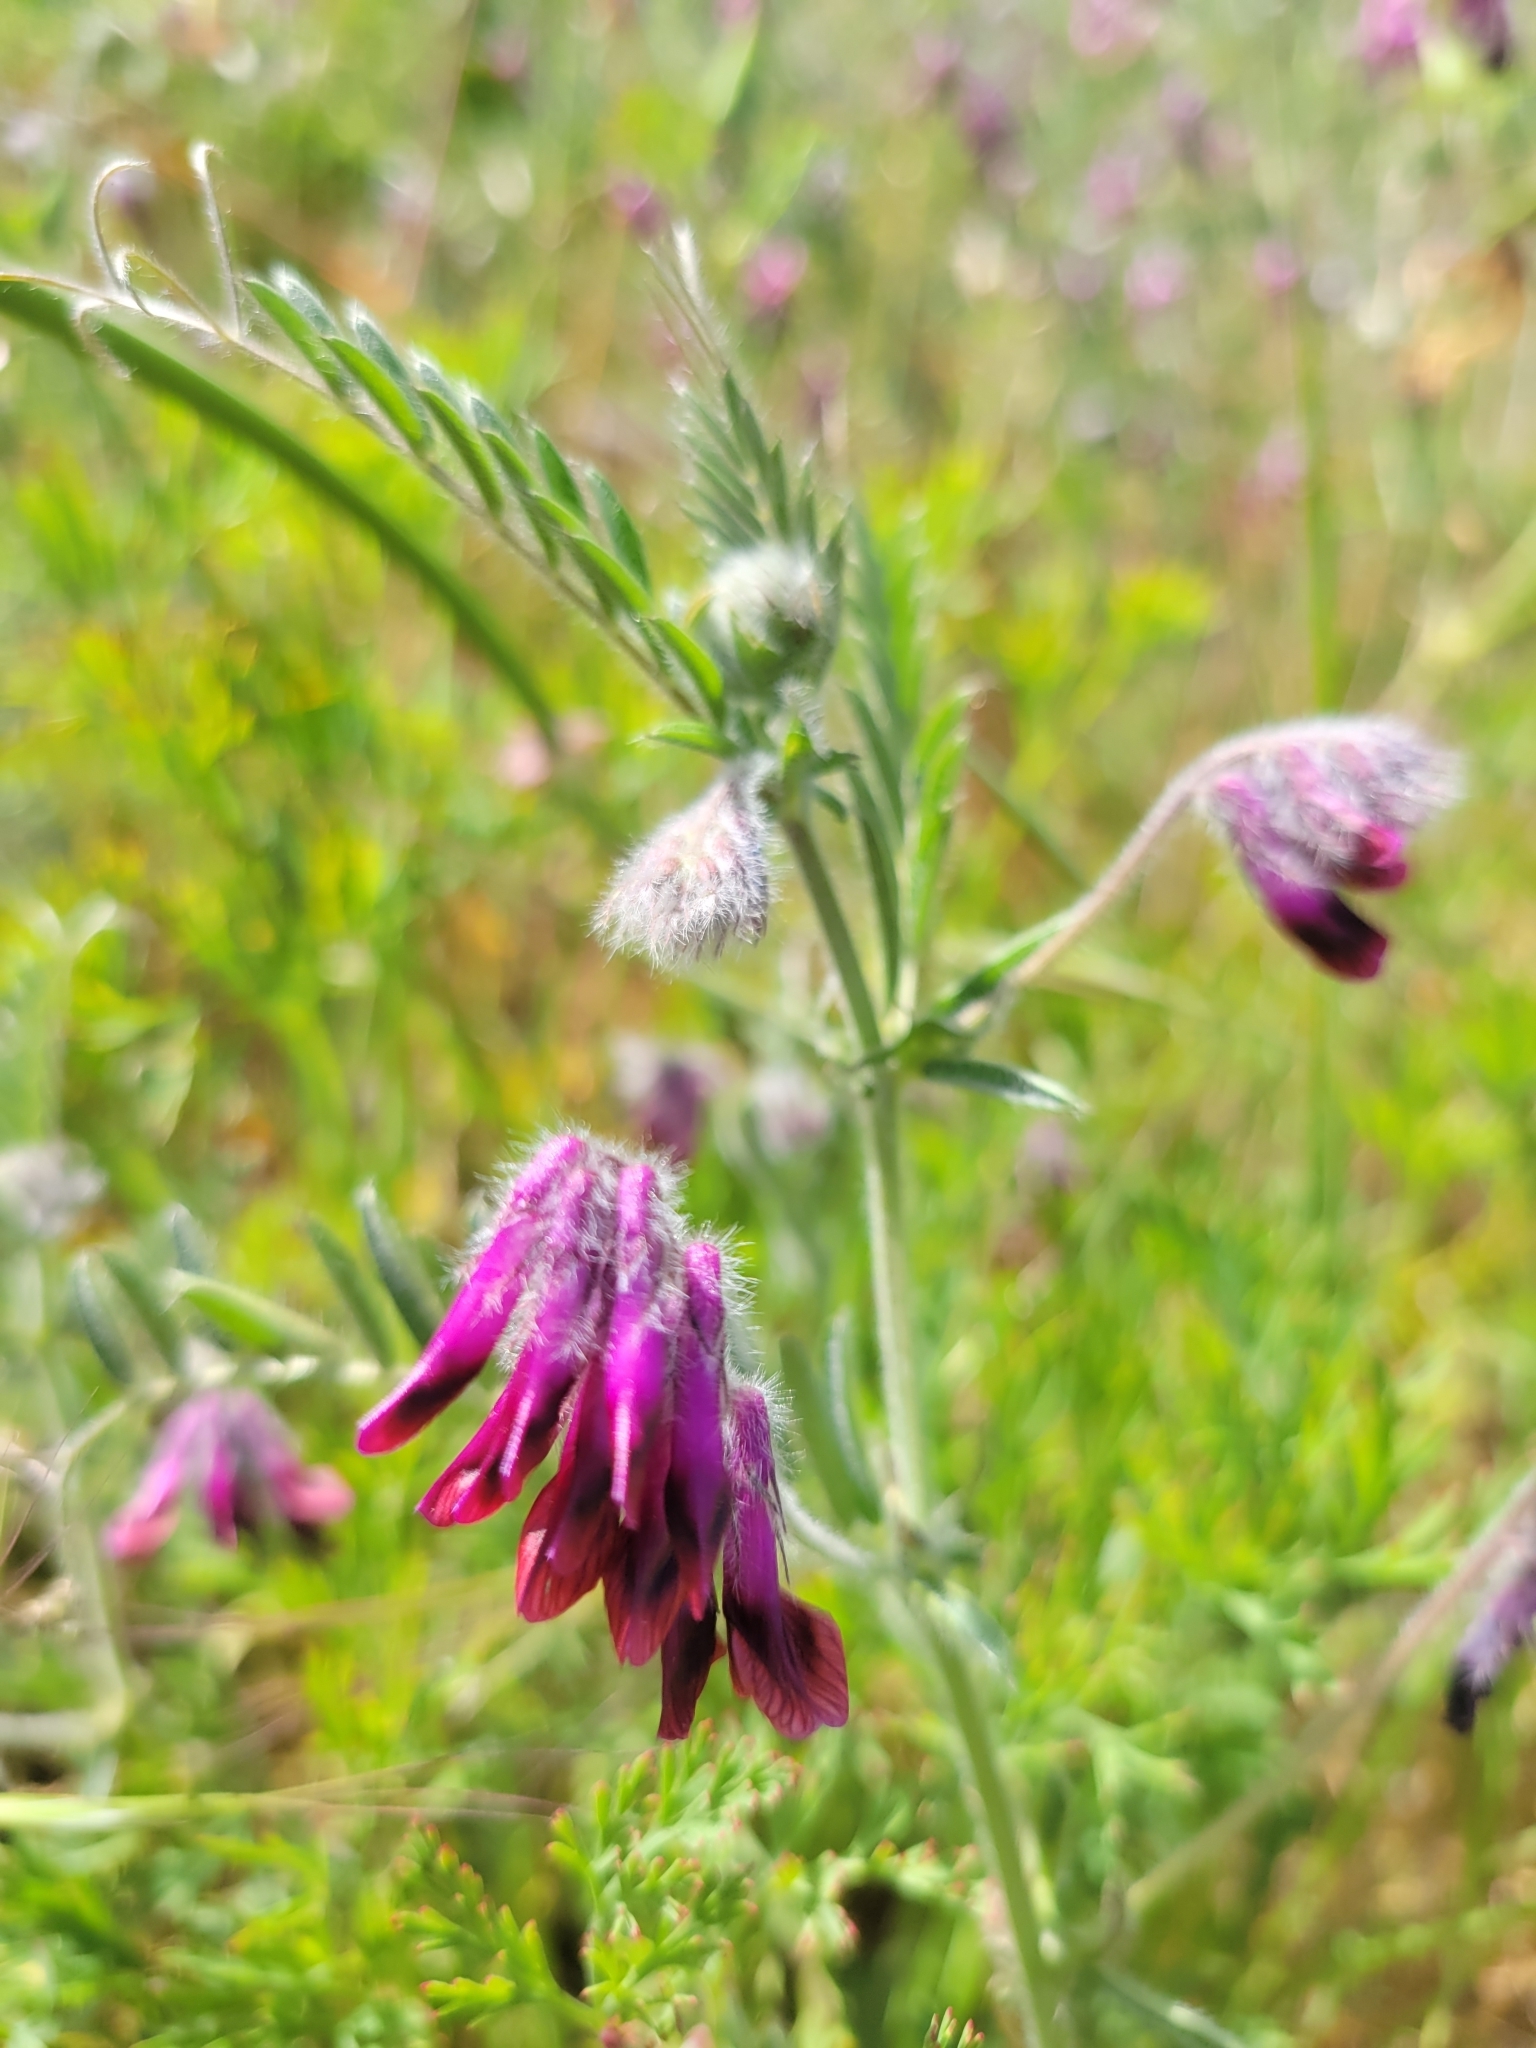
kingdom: Plantae
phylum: Tracheophyta
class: Magnoliopsida
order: Fabales
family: Fabaceae
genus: Vicia
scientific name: Vicia benghalensis
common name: Purple vetch
